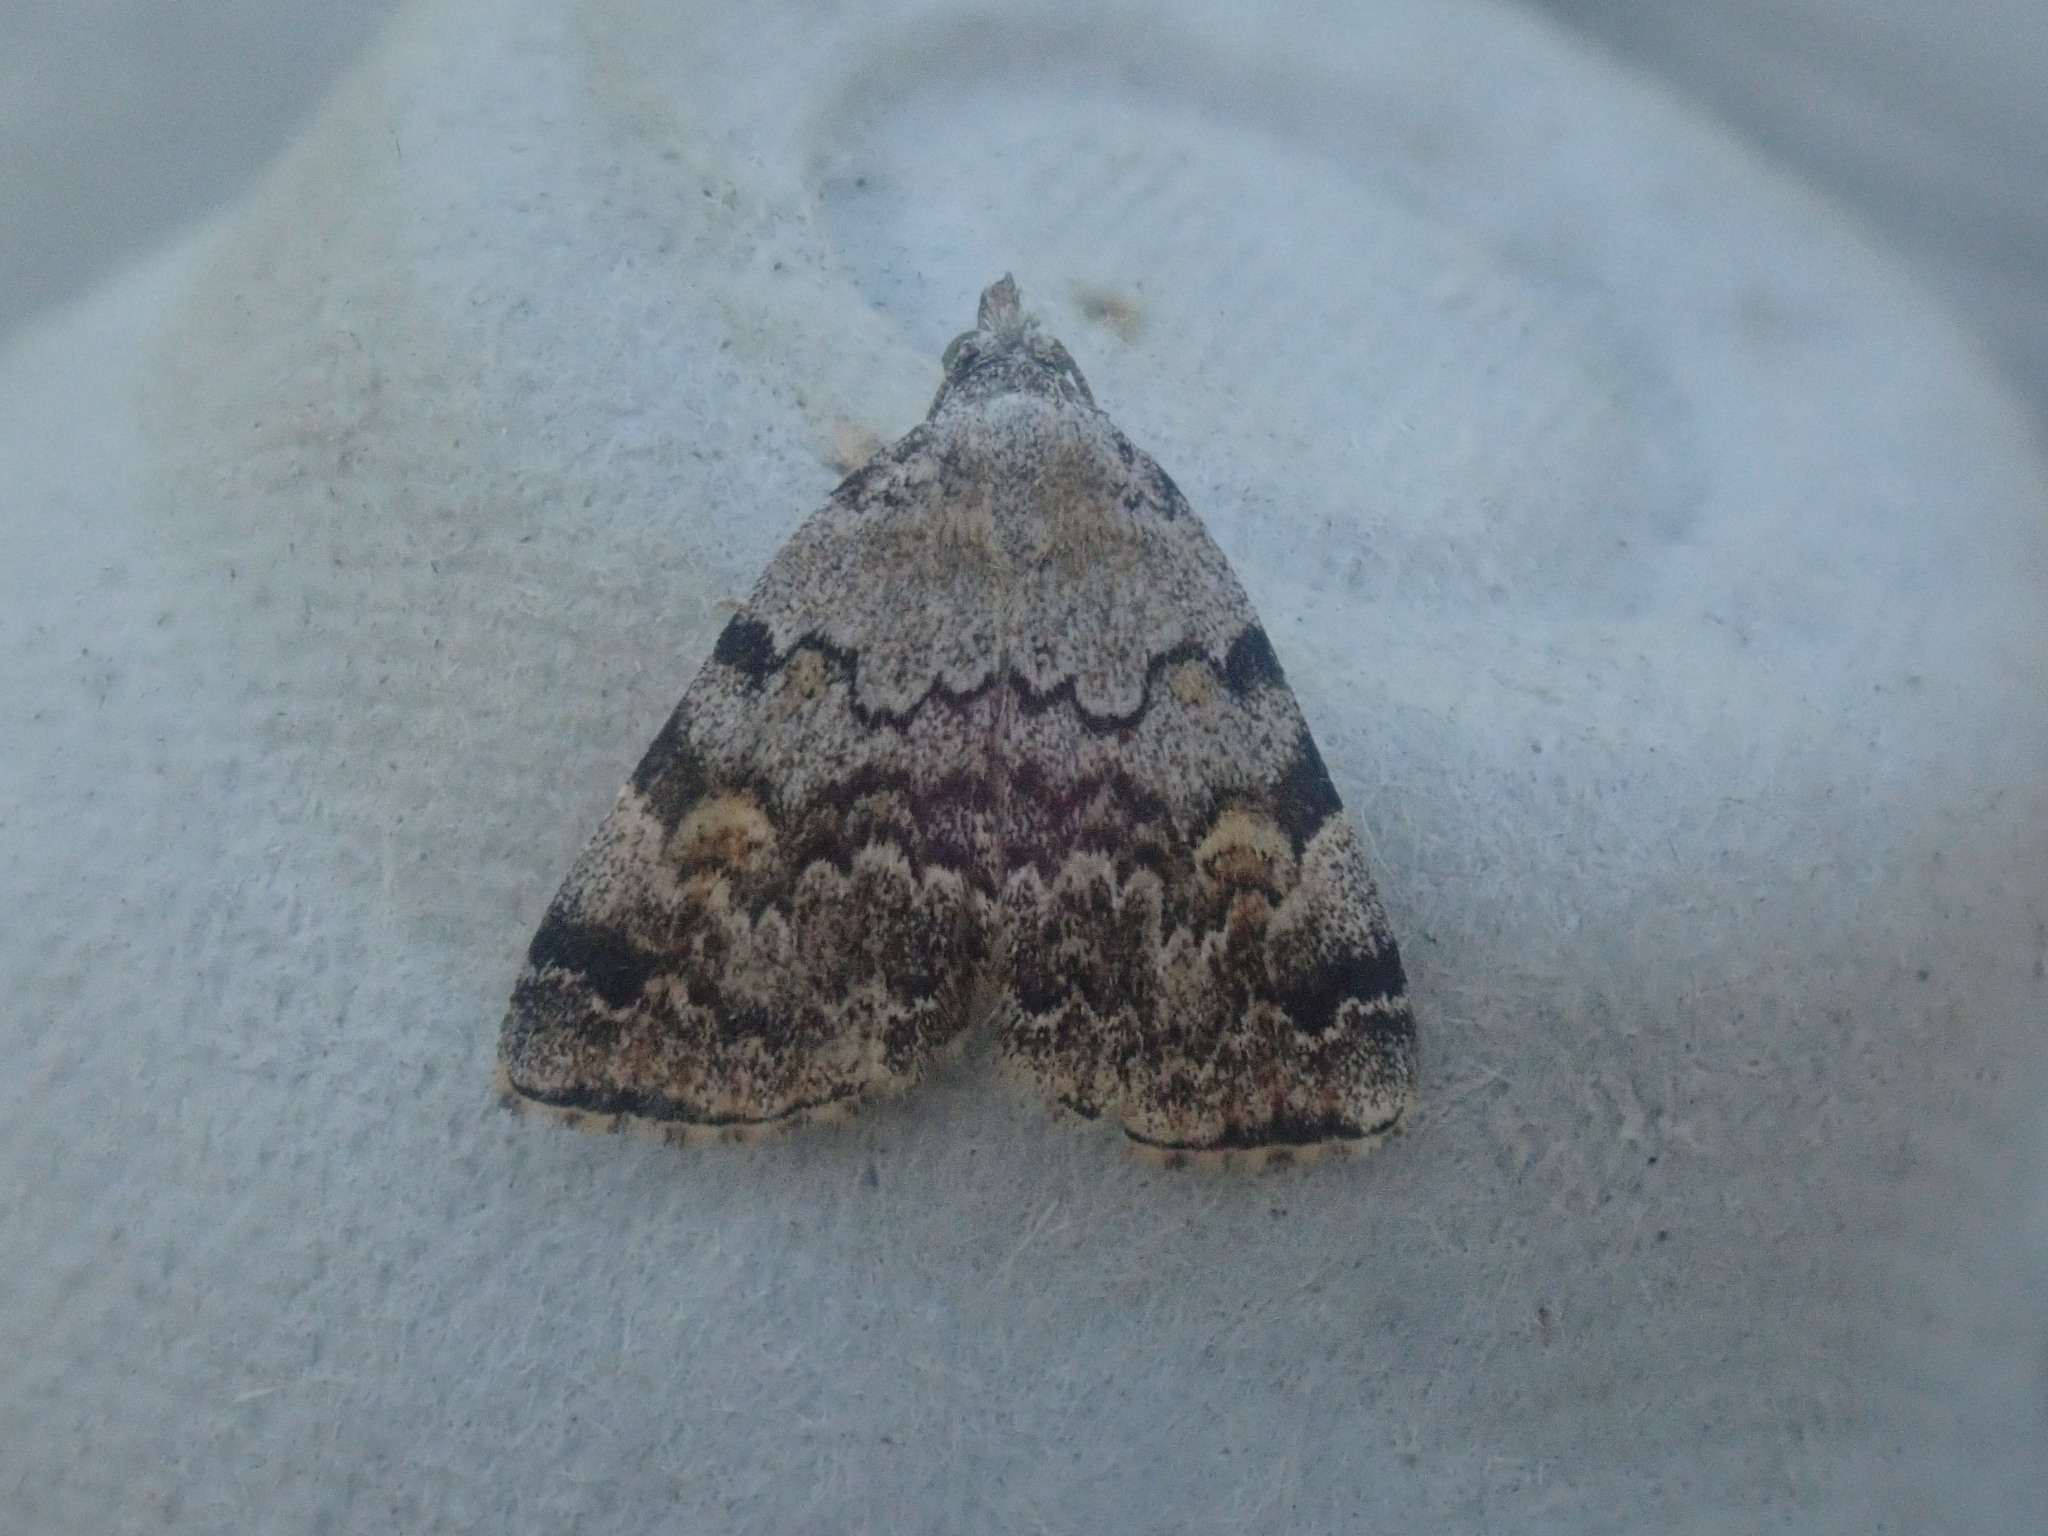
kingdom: Animalia
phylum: Arthropoda
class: Insecta
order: Lepidoptera
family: Erebidae
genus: Idia
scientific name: Idia americalis
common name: American idia moth
